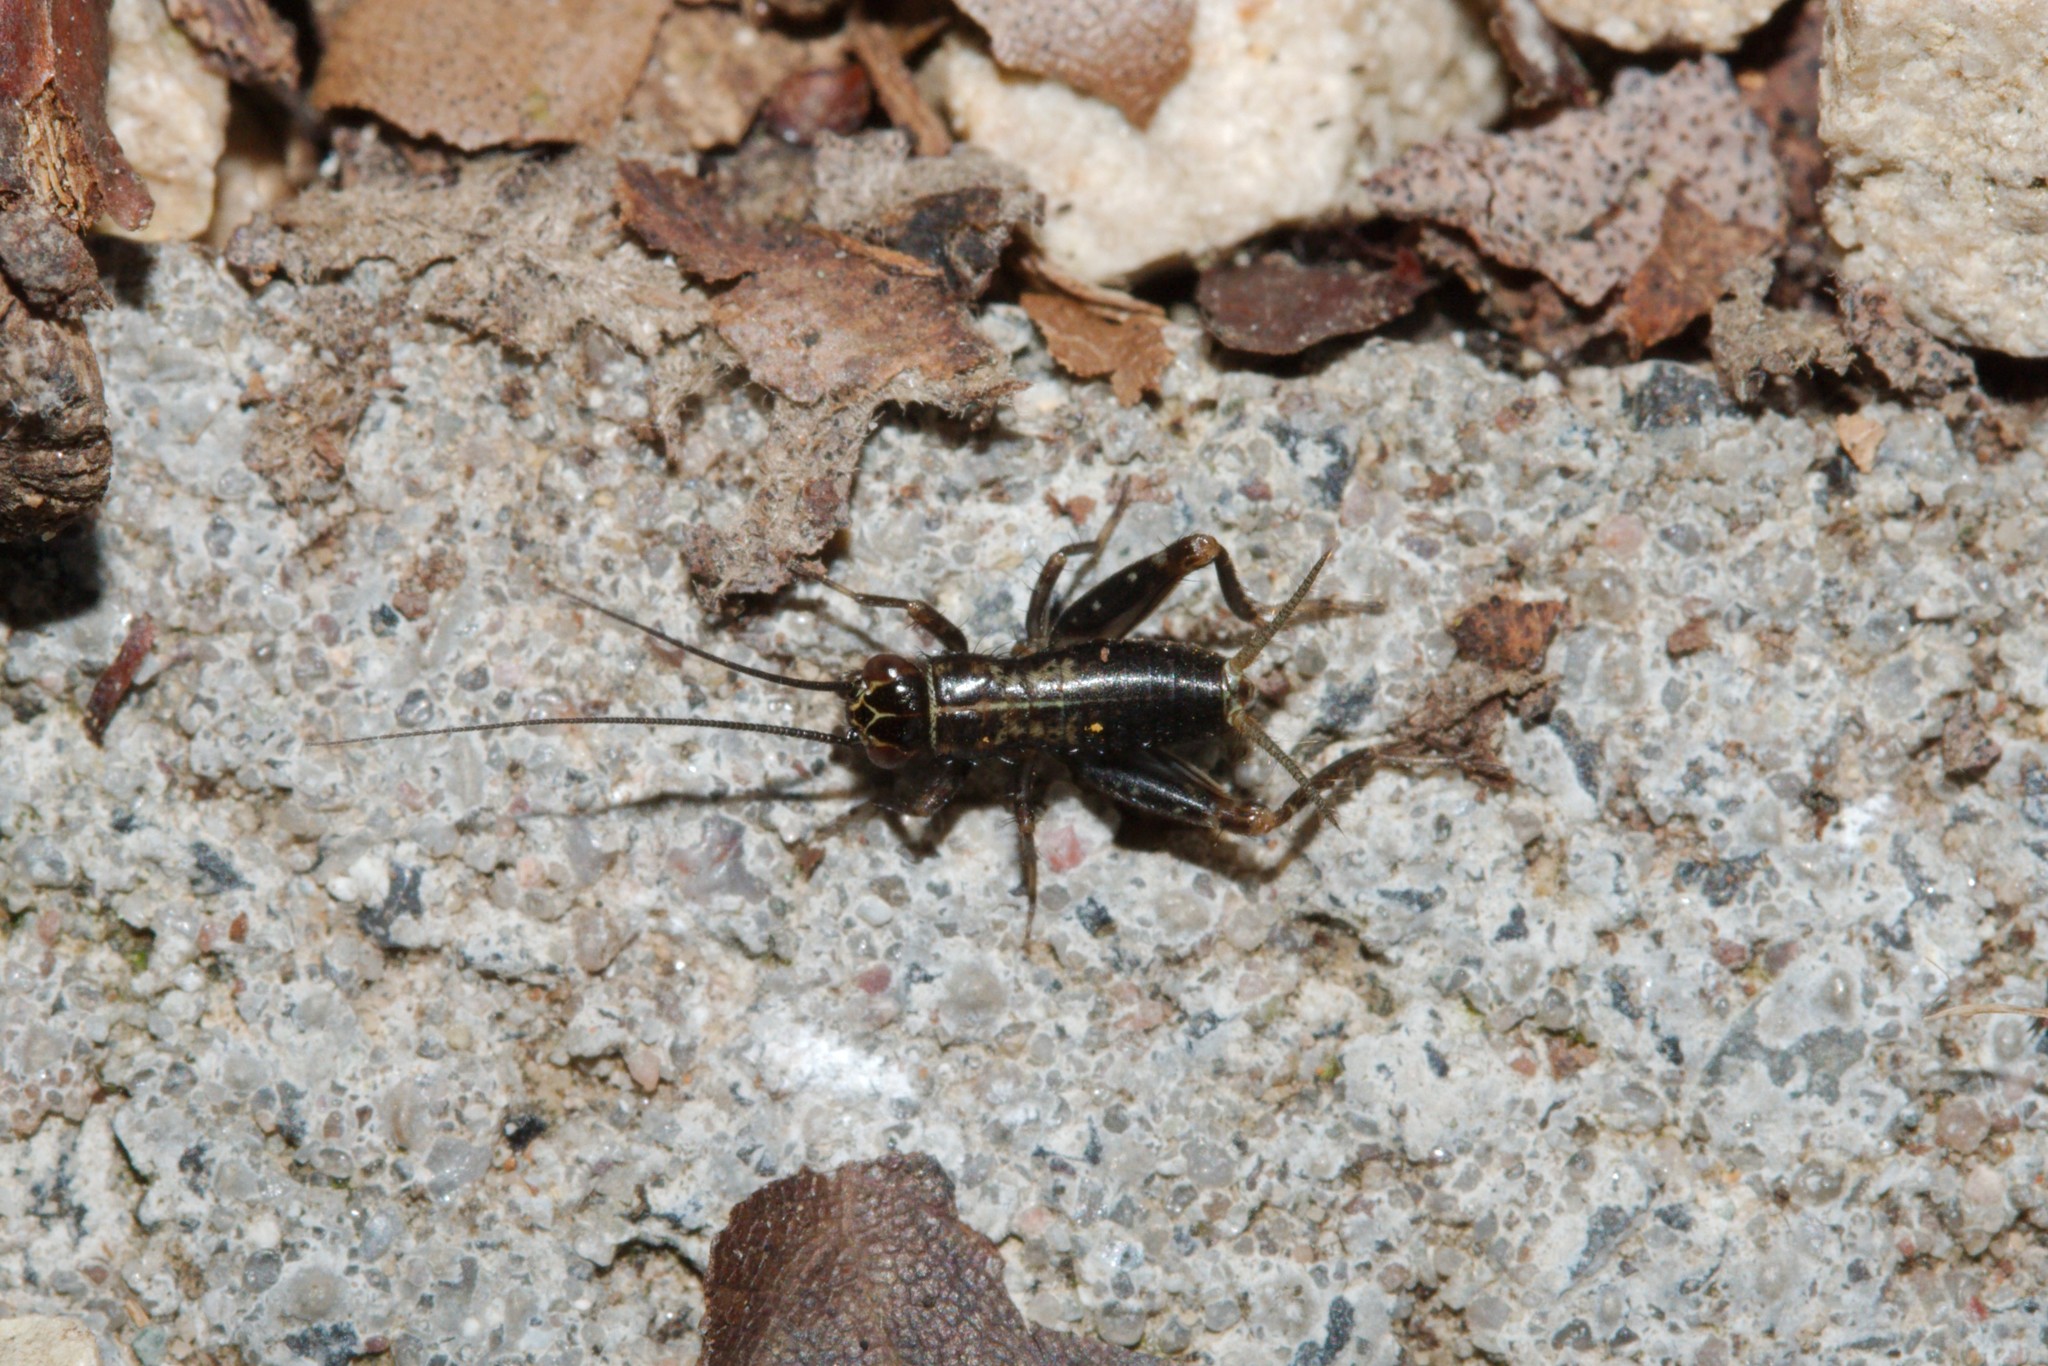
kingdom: Animalia
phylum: Arthropoda
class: Insecta
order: Orthoptera
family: Trigonidiidae
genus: Nemobius
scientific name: Nemobius sylvestris
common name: Wood-cricket
